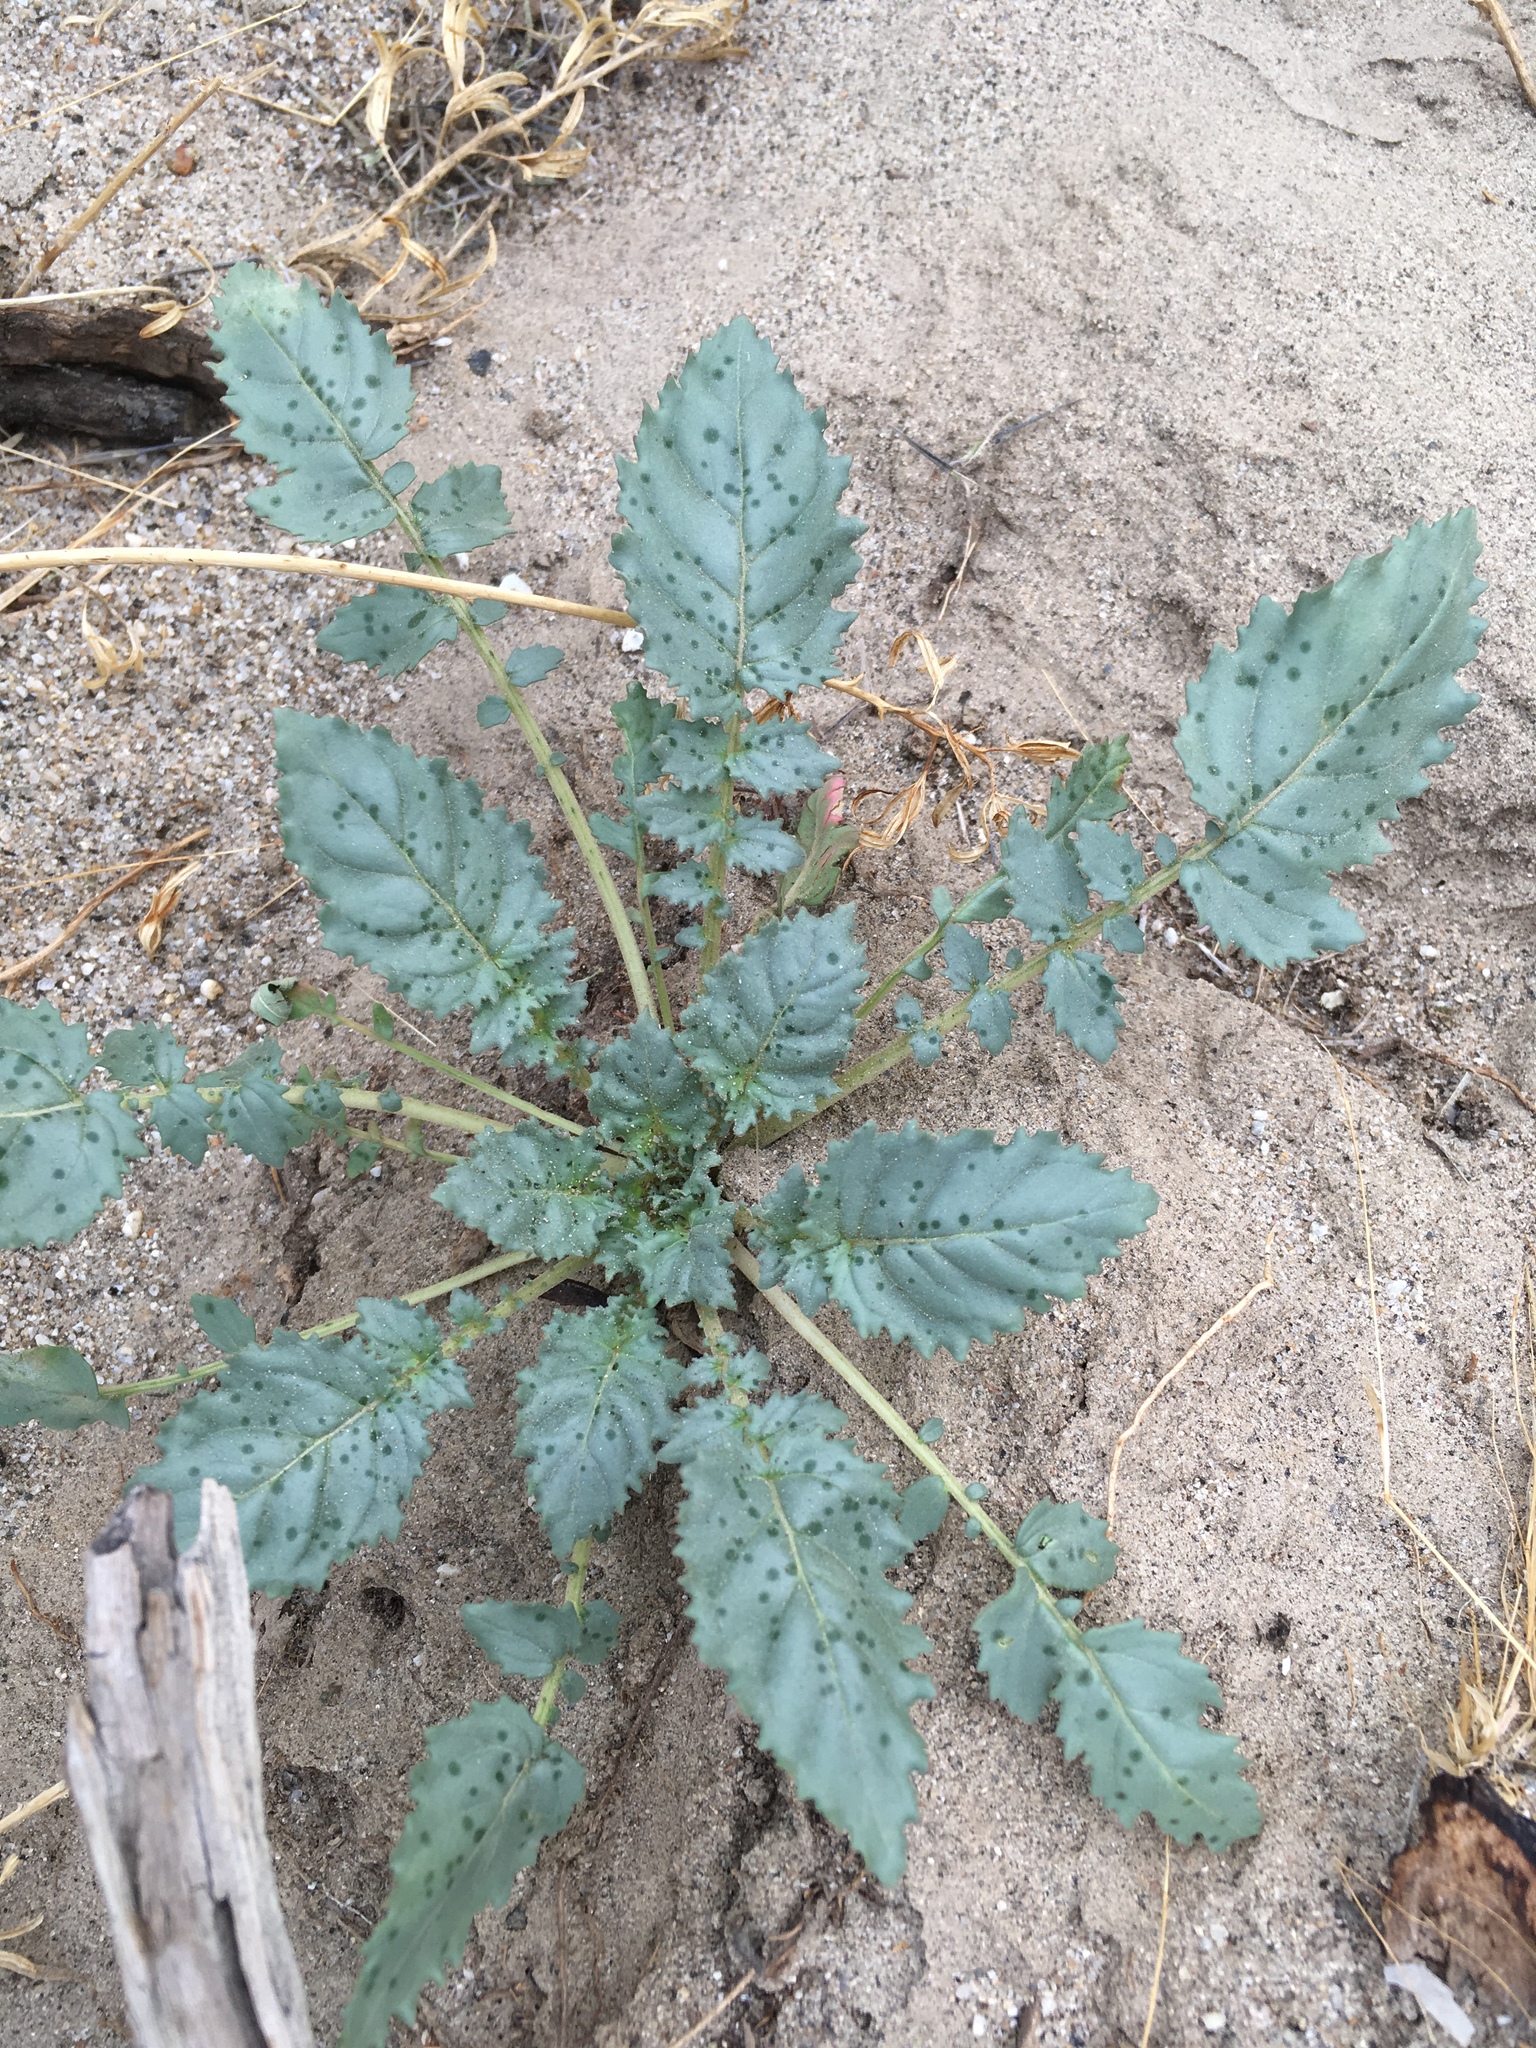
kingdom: Plantae
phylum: Tracheophyta
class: Magnoliopsida
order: Myrtales
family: Onagraceae
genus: Chylismia
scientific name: Chylismia claviformis
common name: Browneyes
